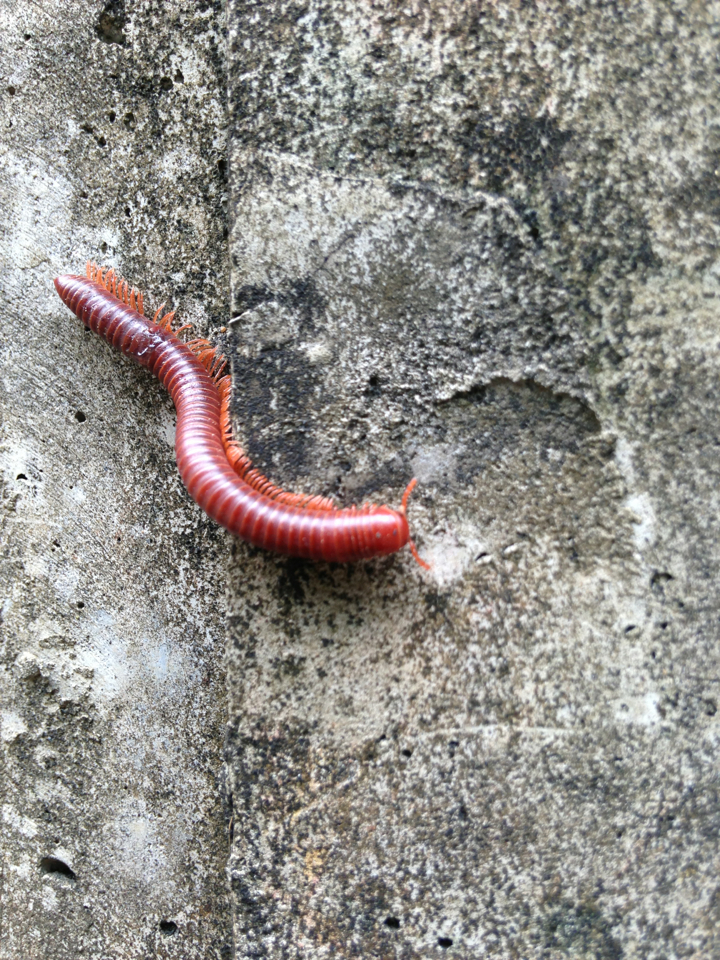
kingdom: Animalia
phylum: Arthropoda
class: Diplopoda
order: Spirobolida
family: Pachybolidae
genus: Trigoniulus
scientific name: Trigoniulus corallinus
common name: Millipede
